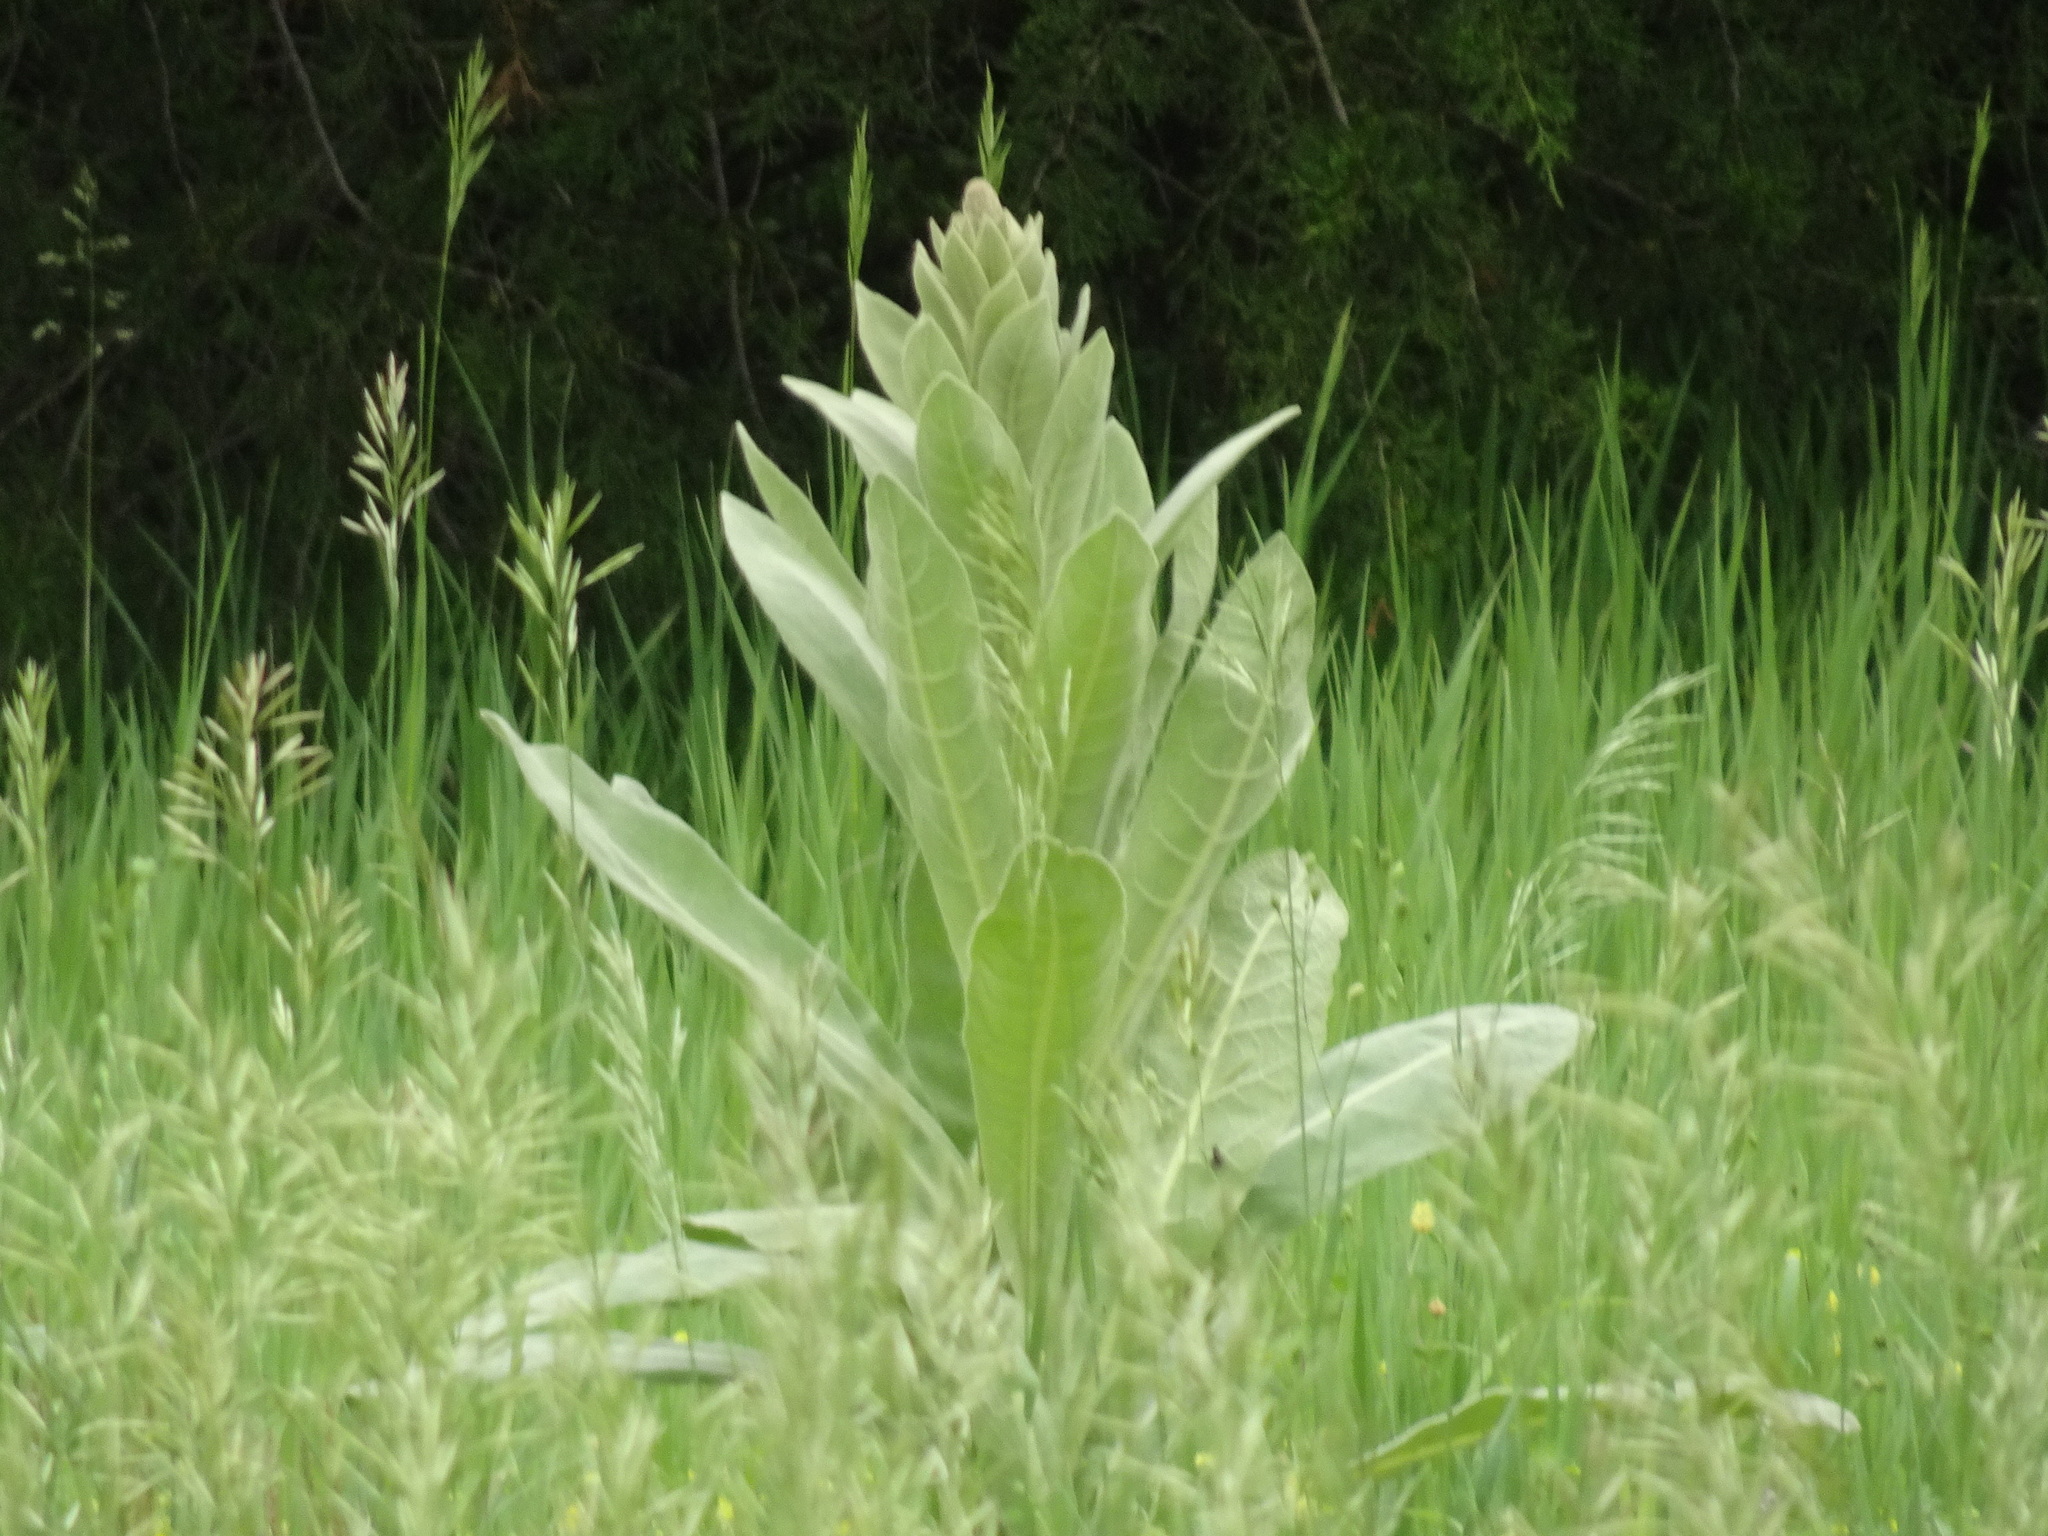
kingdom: Plantae
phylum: Tracheophyta
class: Magnoliopsida
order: Lamiales
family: Scrophulariaceae
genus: Verbascum
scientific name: Verbascum thapsus
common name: Common mullein
